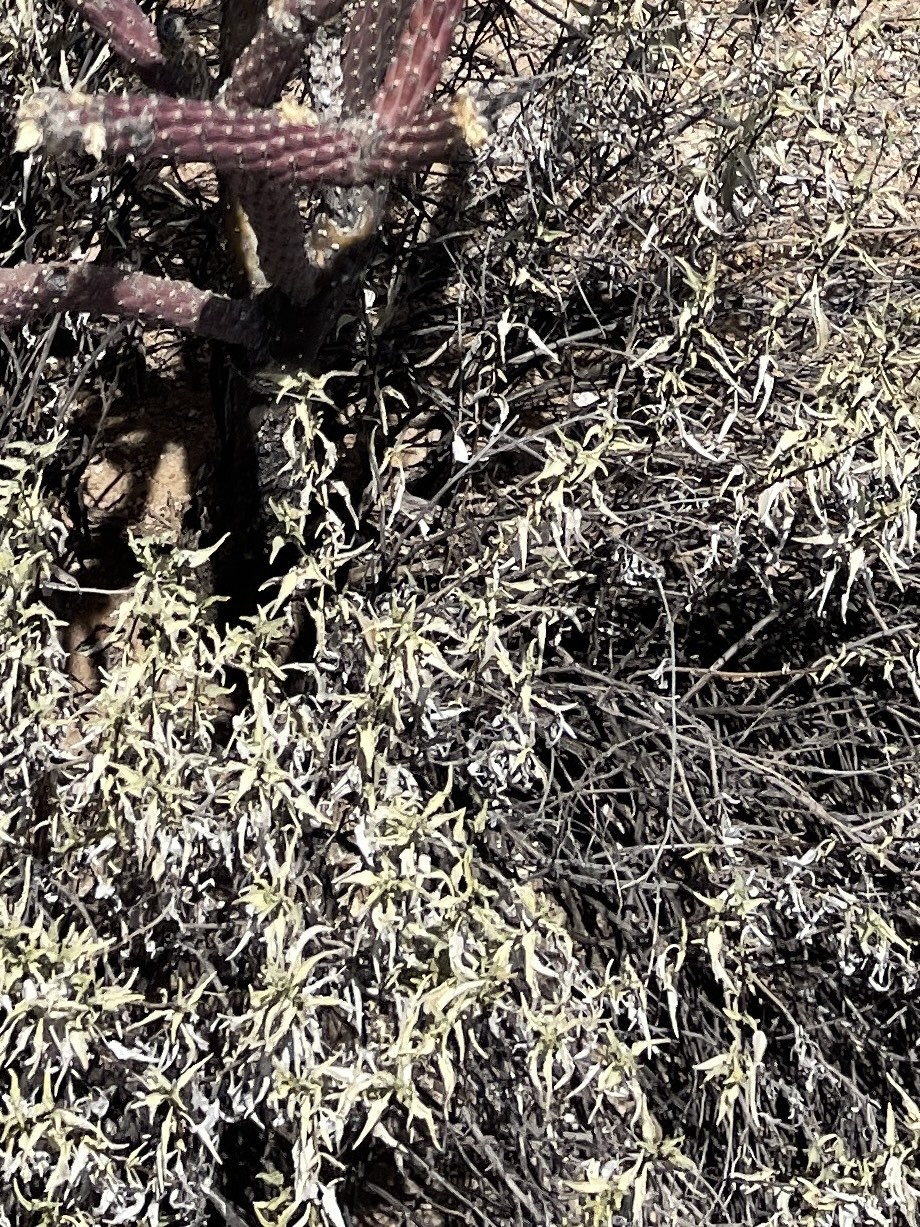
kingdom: Plantae
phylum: Tracheophyta
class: Magnoliopsida
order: Asterales
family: Asteraceae
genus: Ambrosia
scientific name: Ambrosia deltoidea
